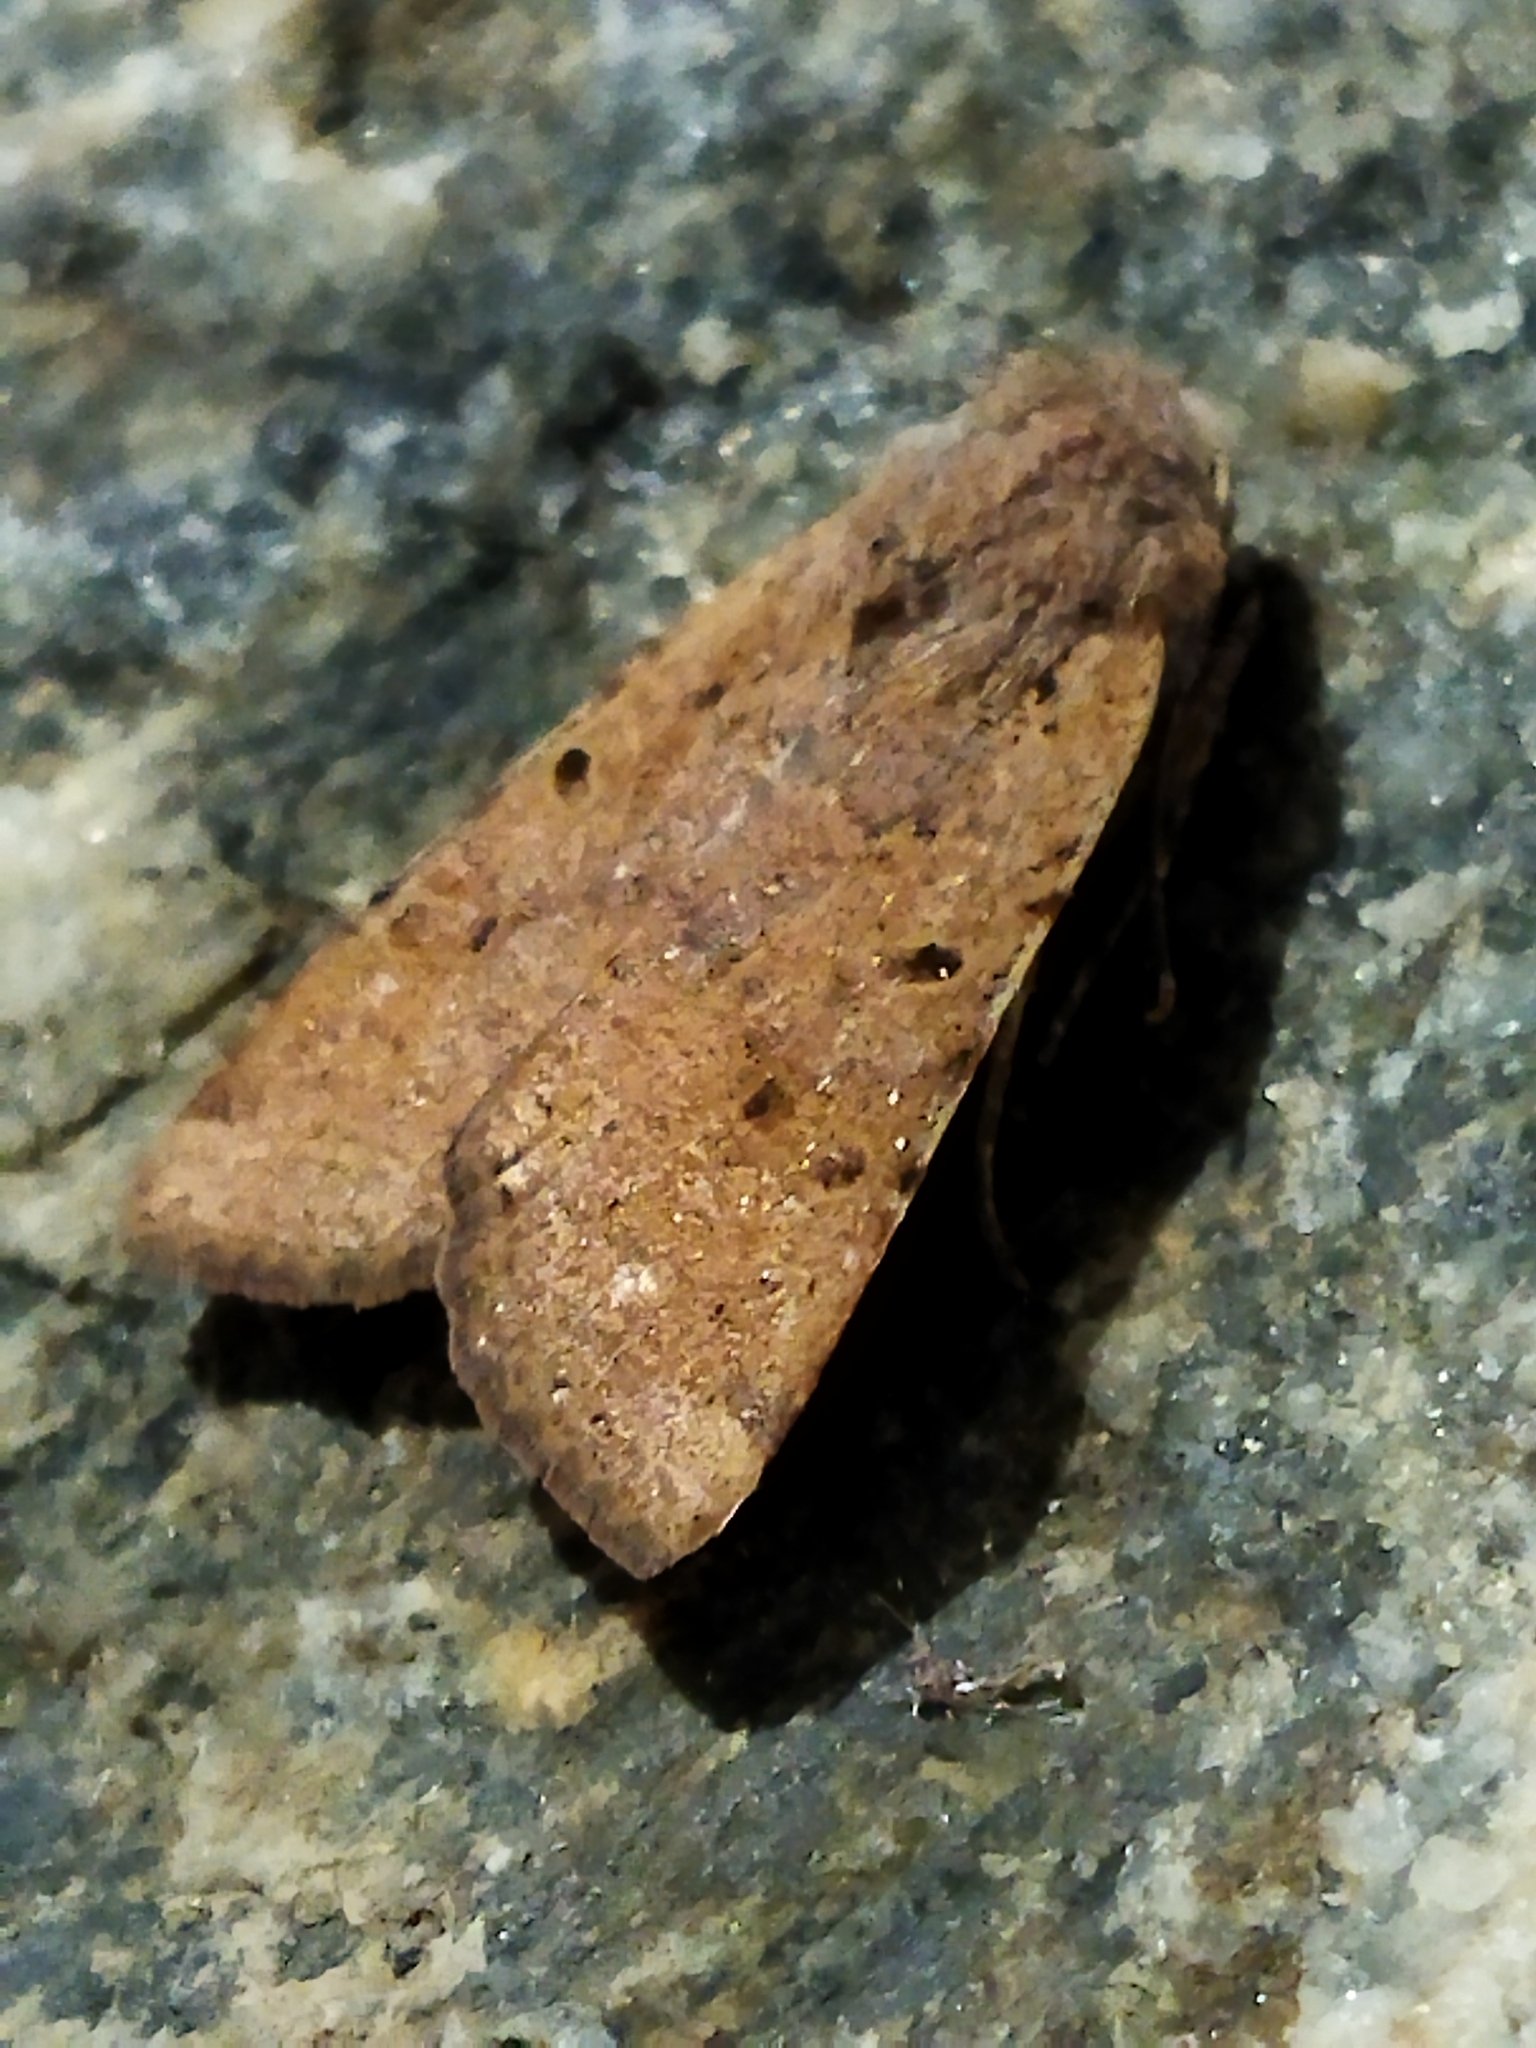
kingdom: Animalia
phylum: Arthropoda
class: Insecta
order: Lepidoptera
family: Noctuidae
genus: Agrochola
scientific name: Agrochola lychnidis
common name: Beaded chestnut
